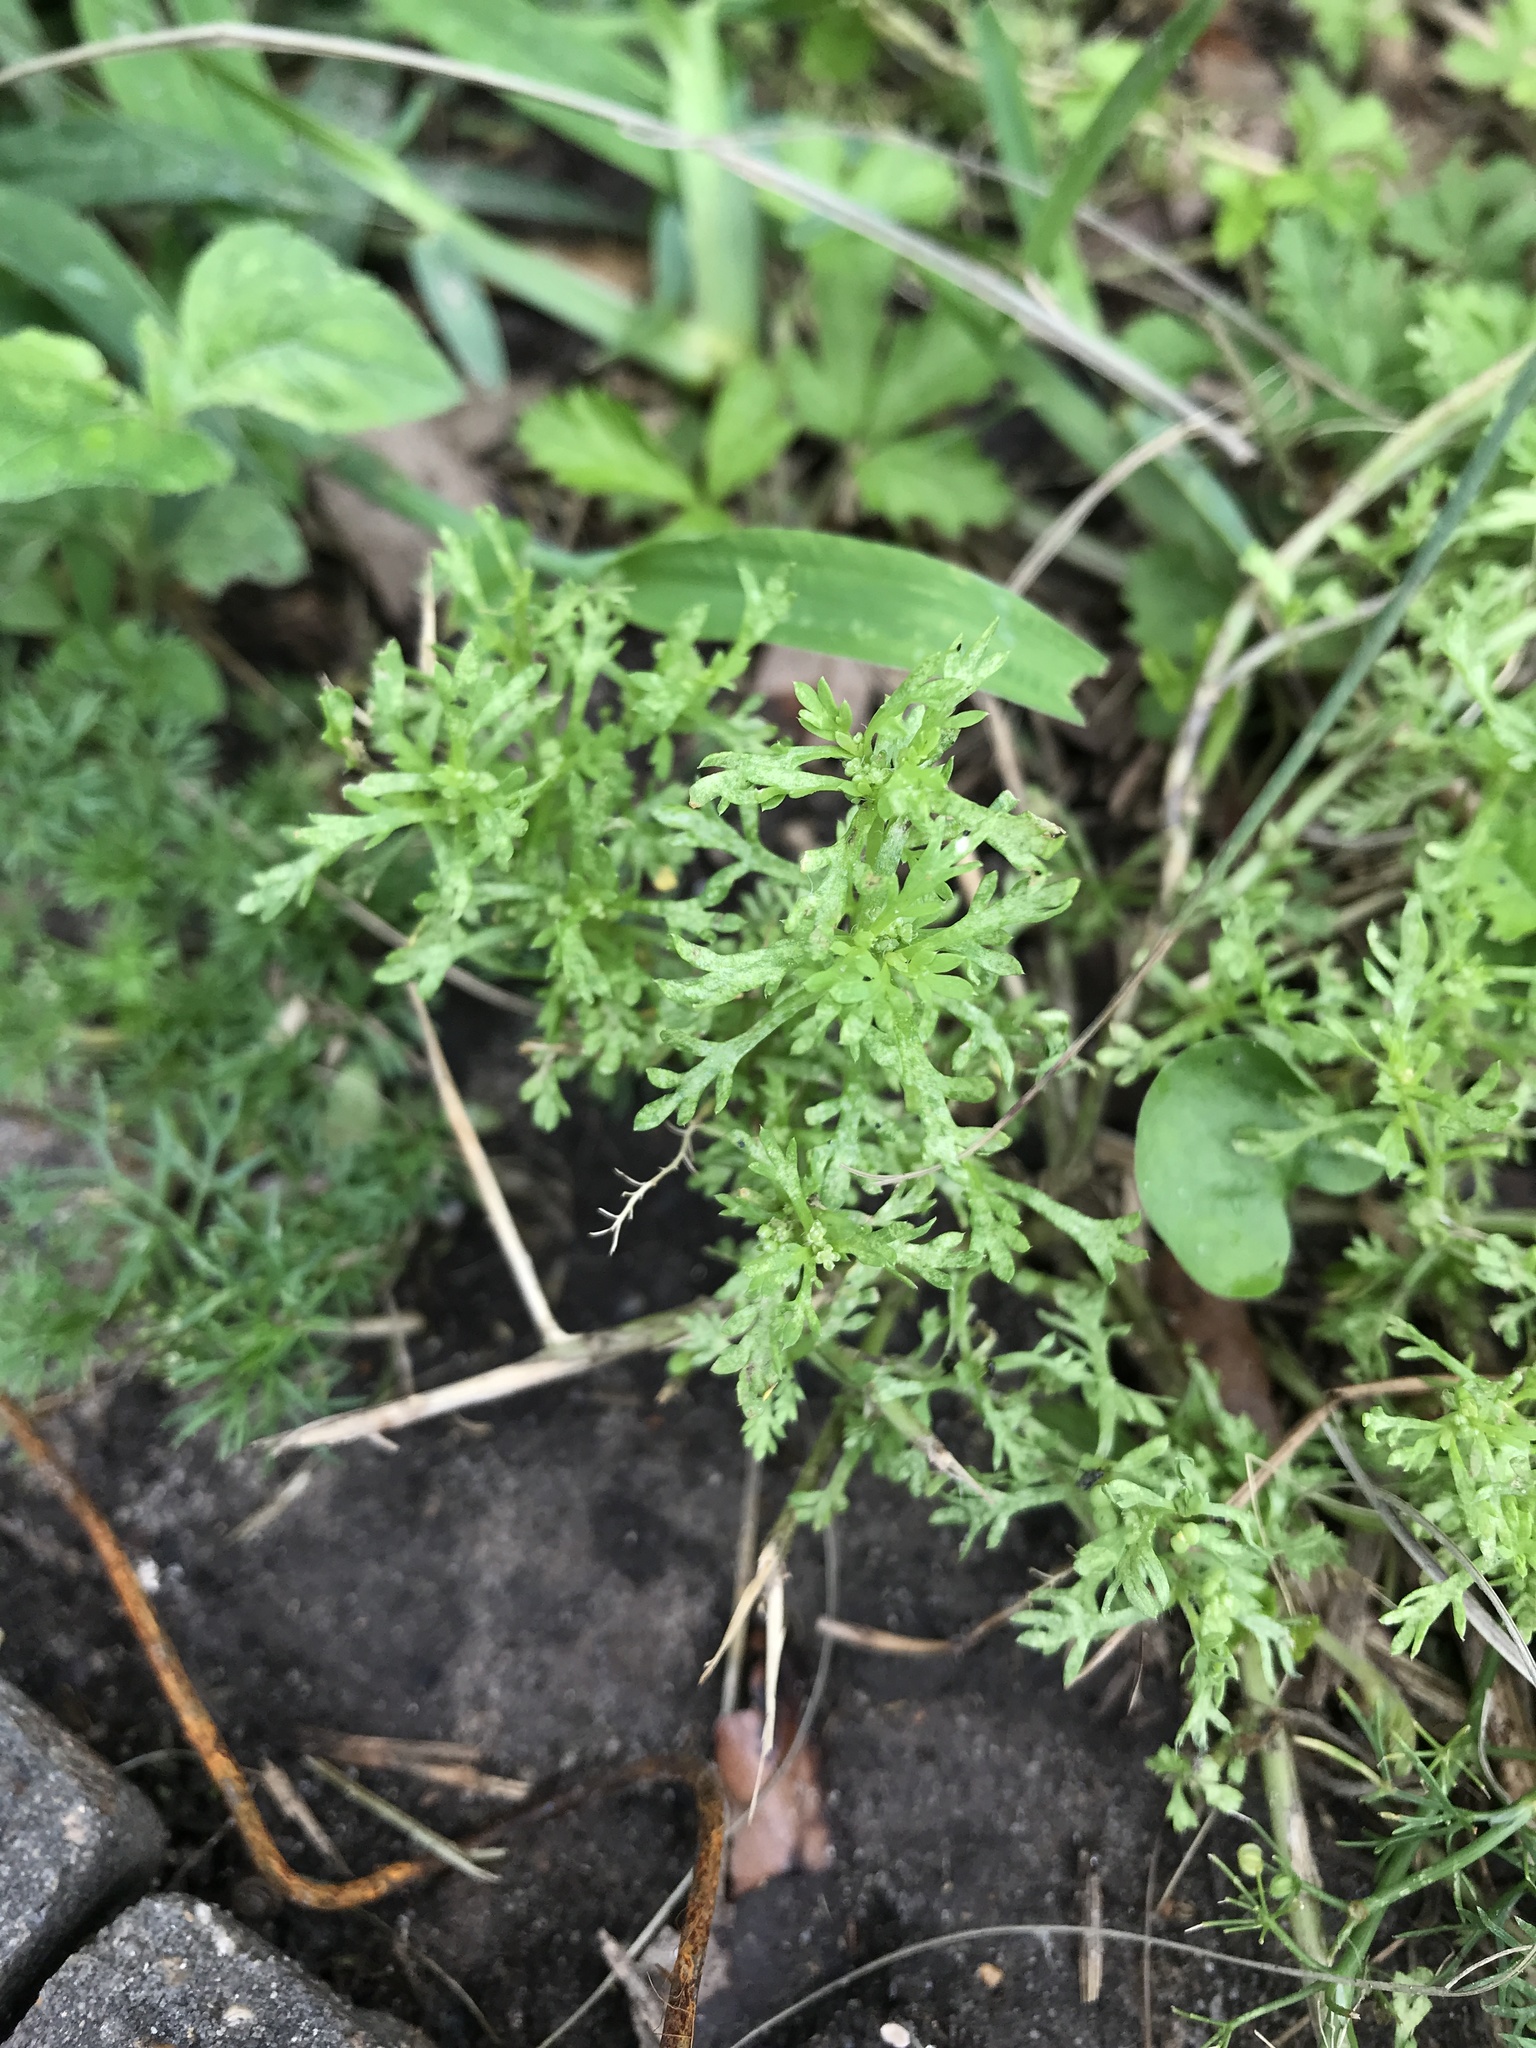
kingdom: Plantae
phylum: Tracheophyta
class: Magnoliopsida
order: Brassicales
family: Brassicaceae
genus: Lepidium
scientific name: Lepidium didymum
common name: Lesser swinecress
